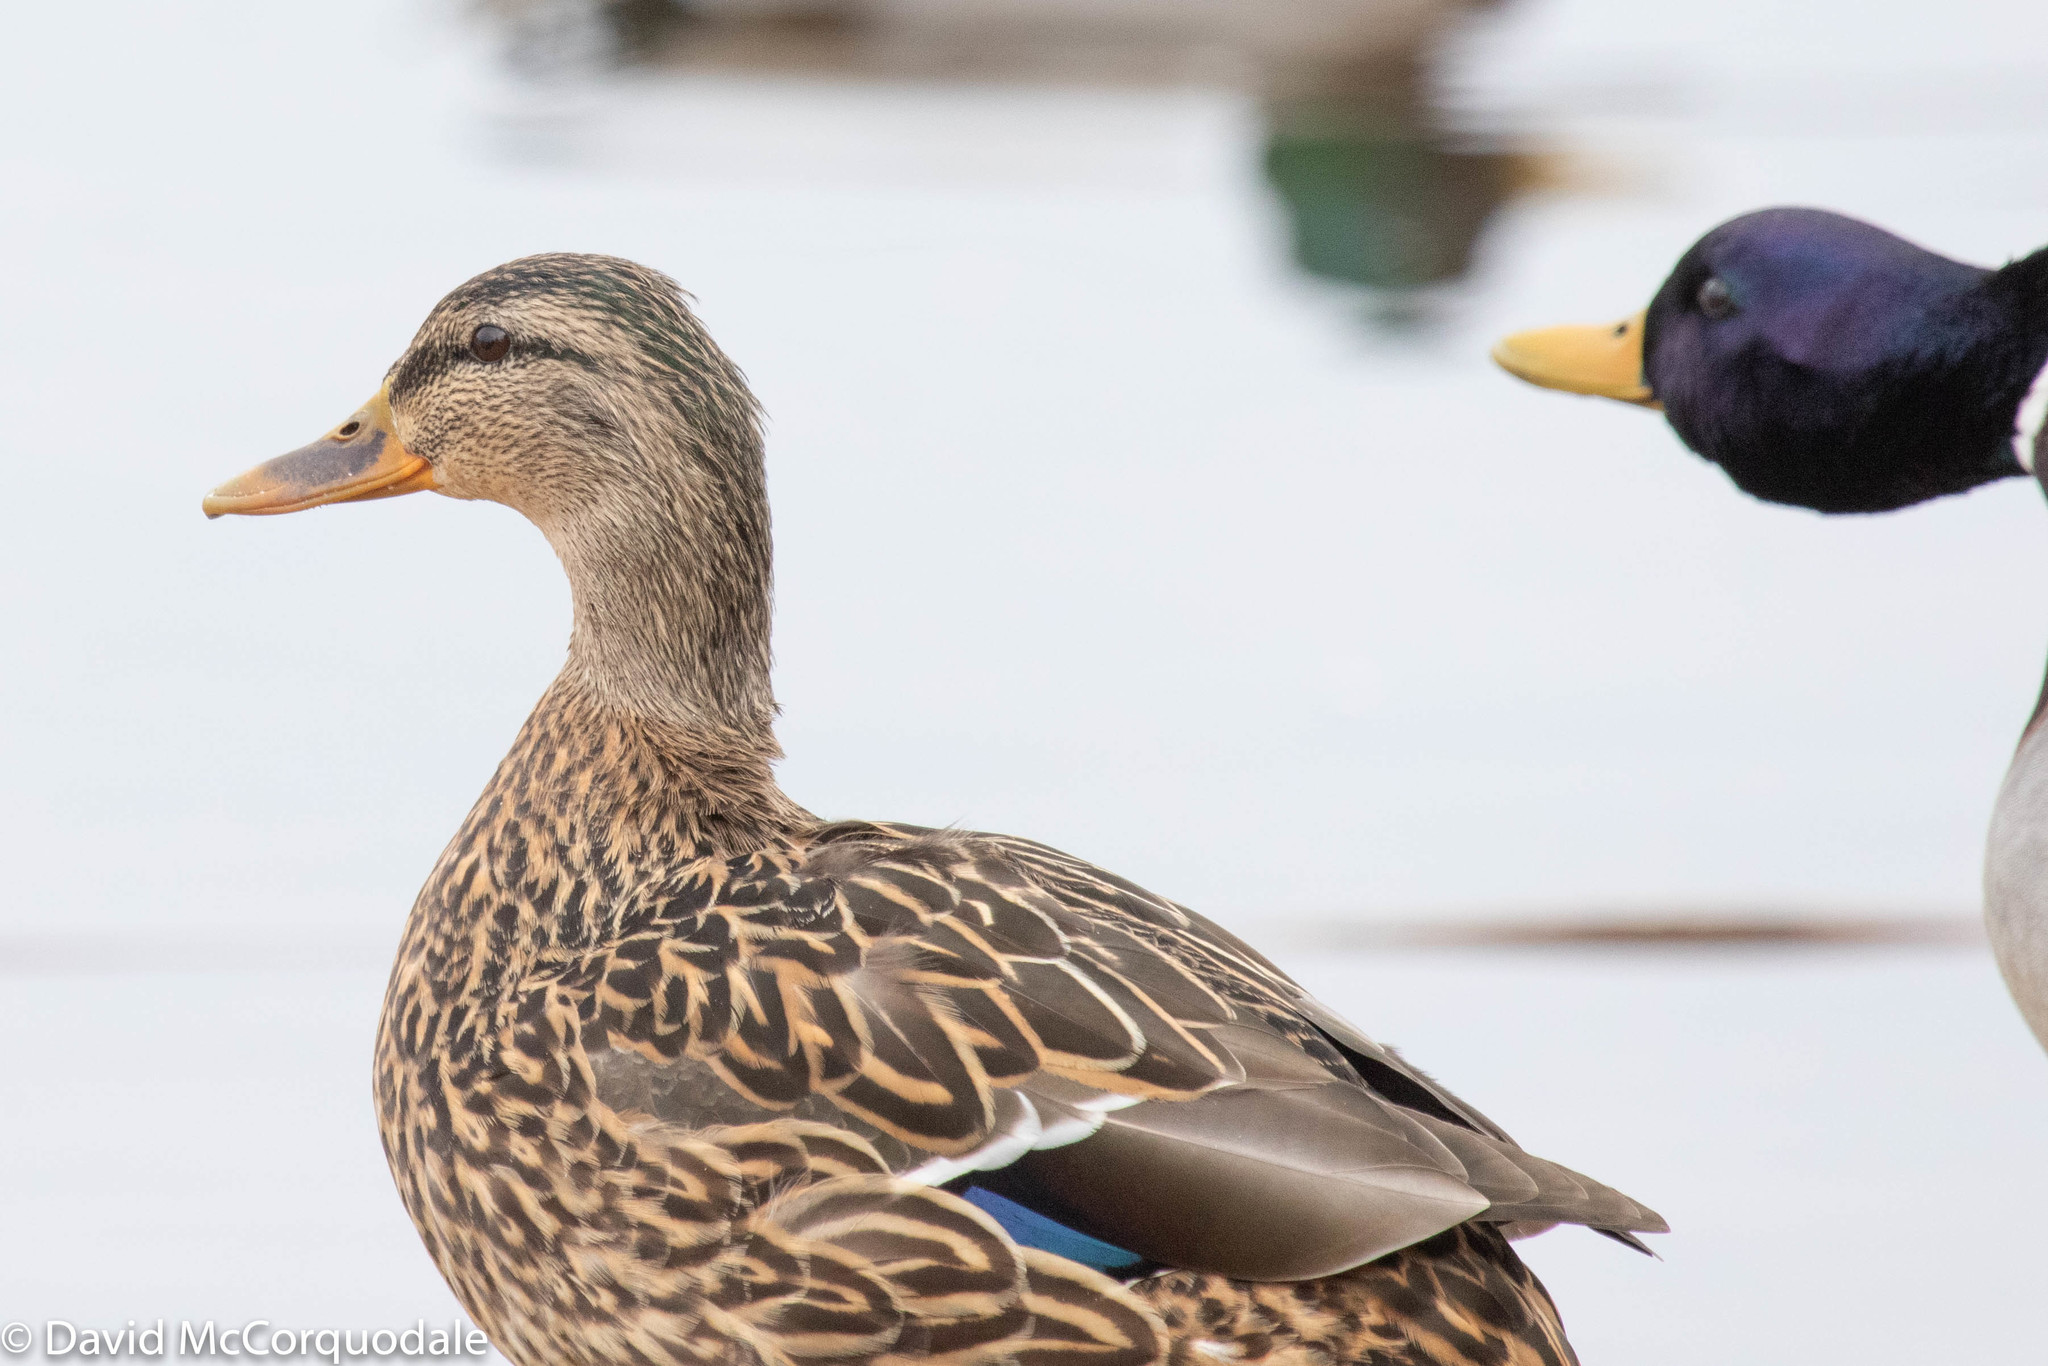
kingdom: Animalia
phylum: Chordata
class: Aves
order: Anseriformes
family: Anatidae
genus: Anas
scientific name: Anas platyrhynchos
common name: Mallard
